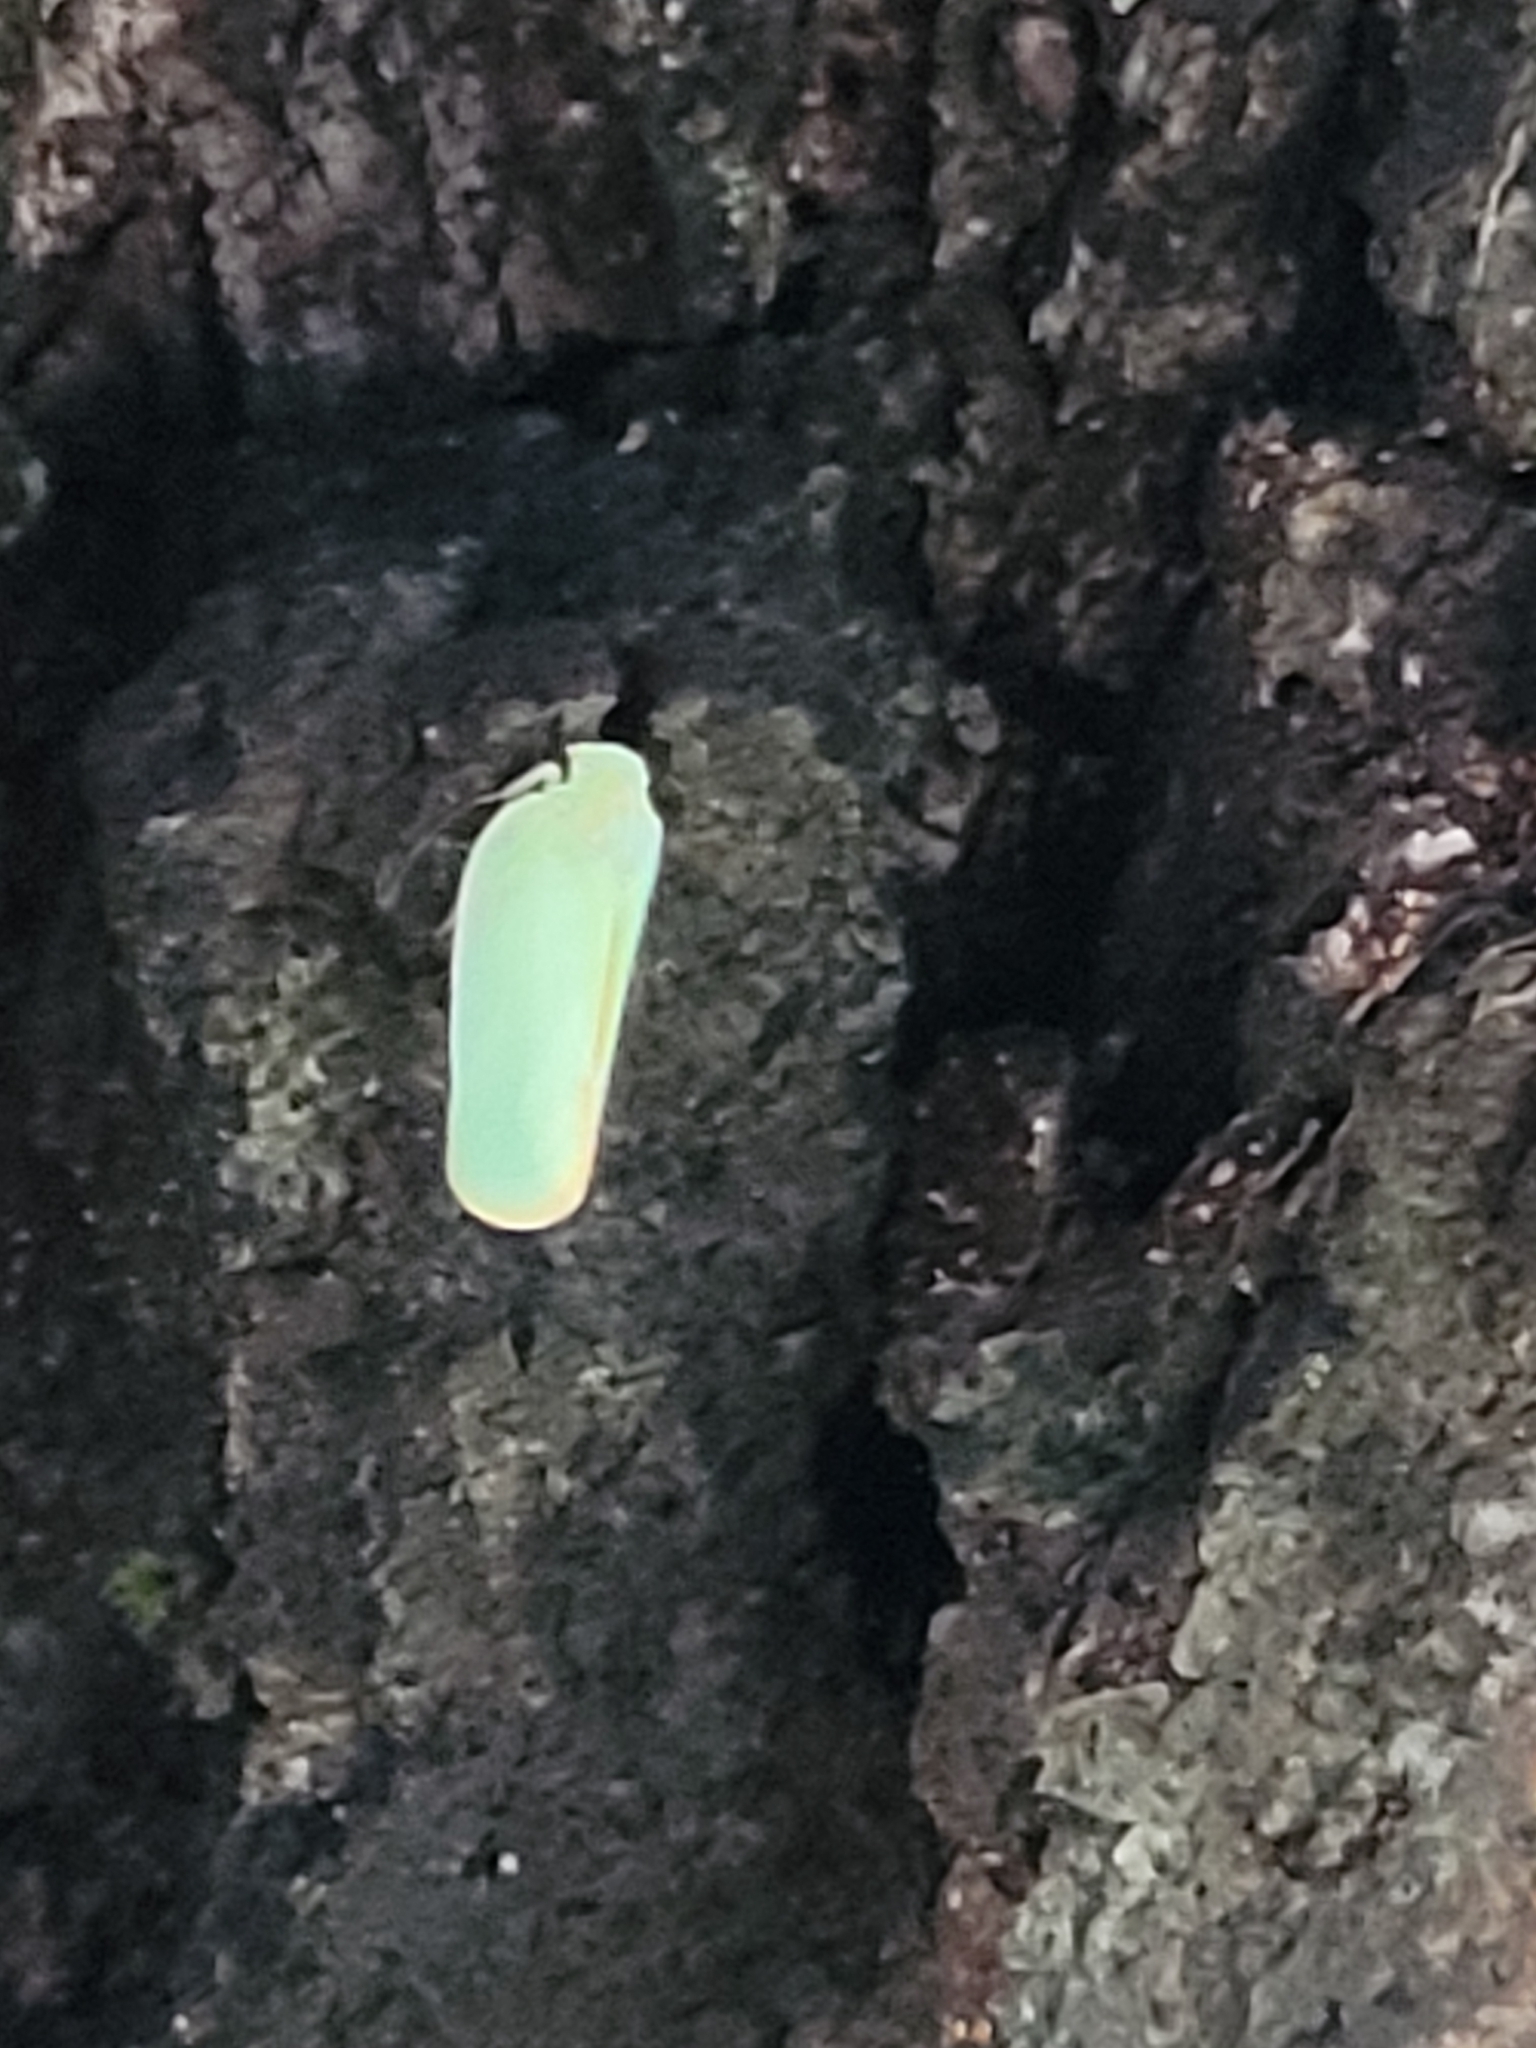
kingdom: Animalia
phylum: Arthropoda
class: Insecta
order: Hemiptera
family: Flatidae
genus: Ormenoides
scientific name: Ormenoides venusta
